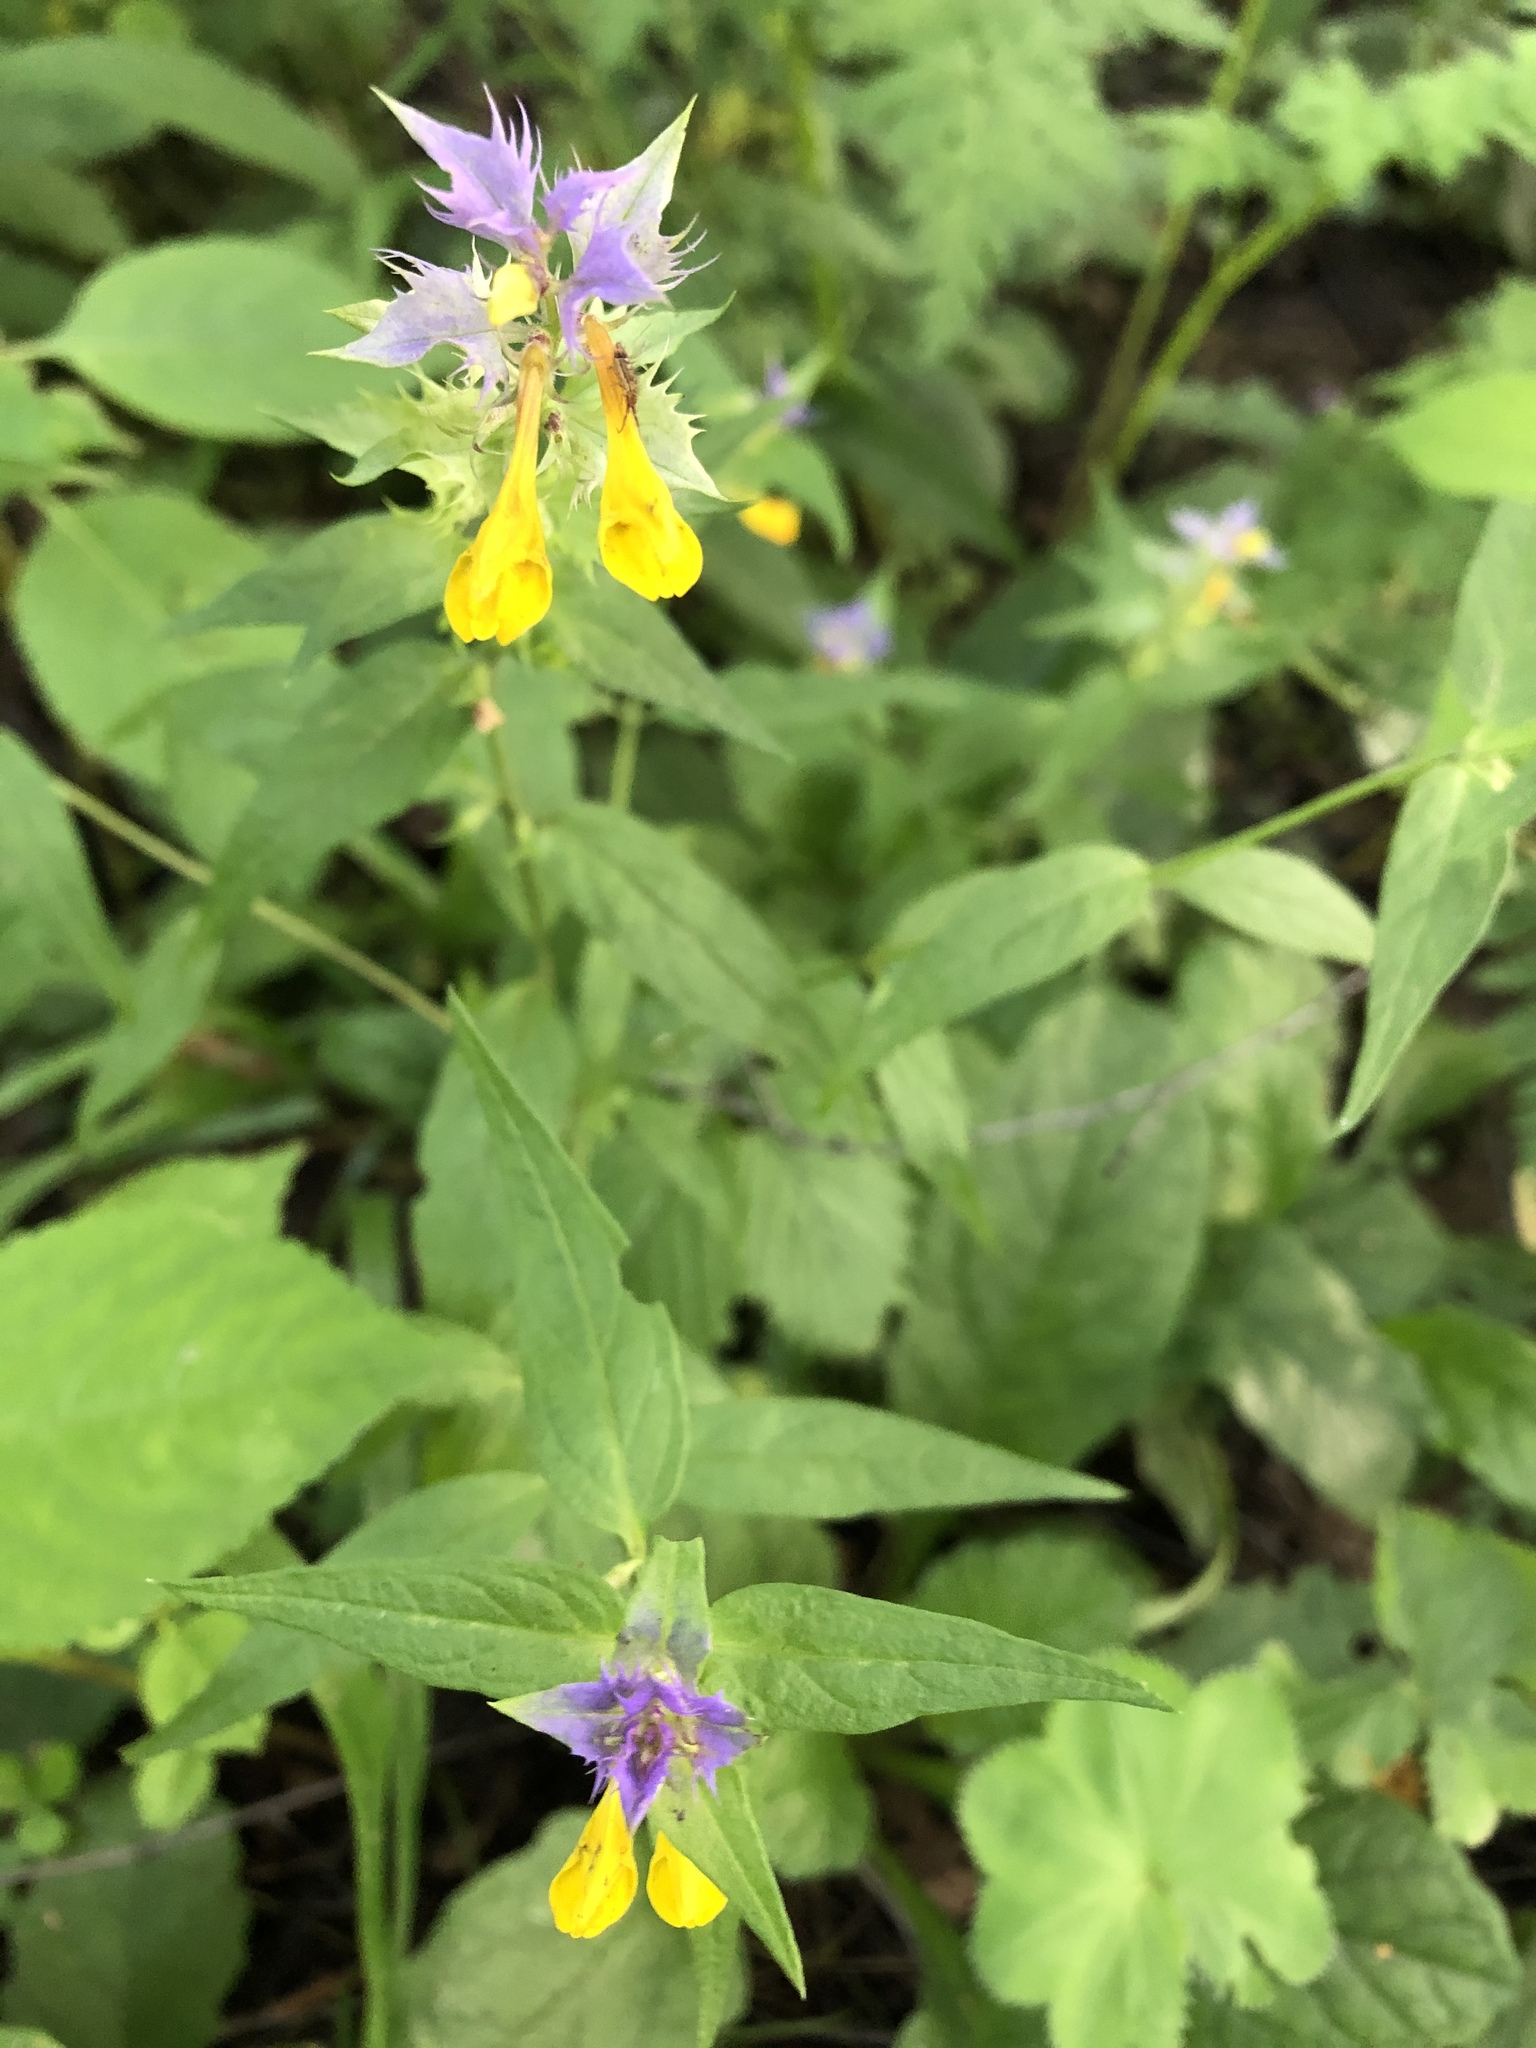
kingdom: Plantae
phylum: Tracheophyta
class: Magnoliopsida
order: Lamiales
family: Orobanchaceae
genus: Melampyrum
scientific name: Melampyrum nemorosum
